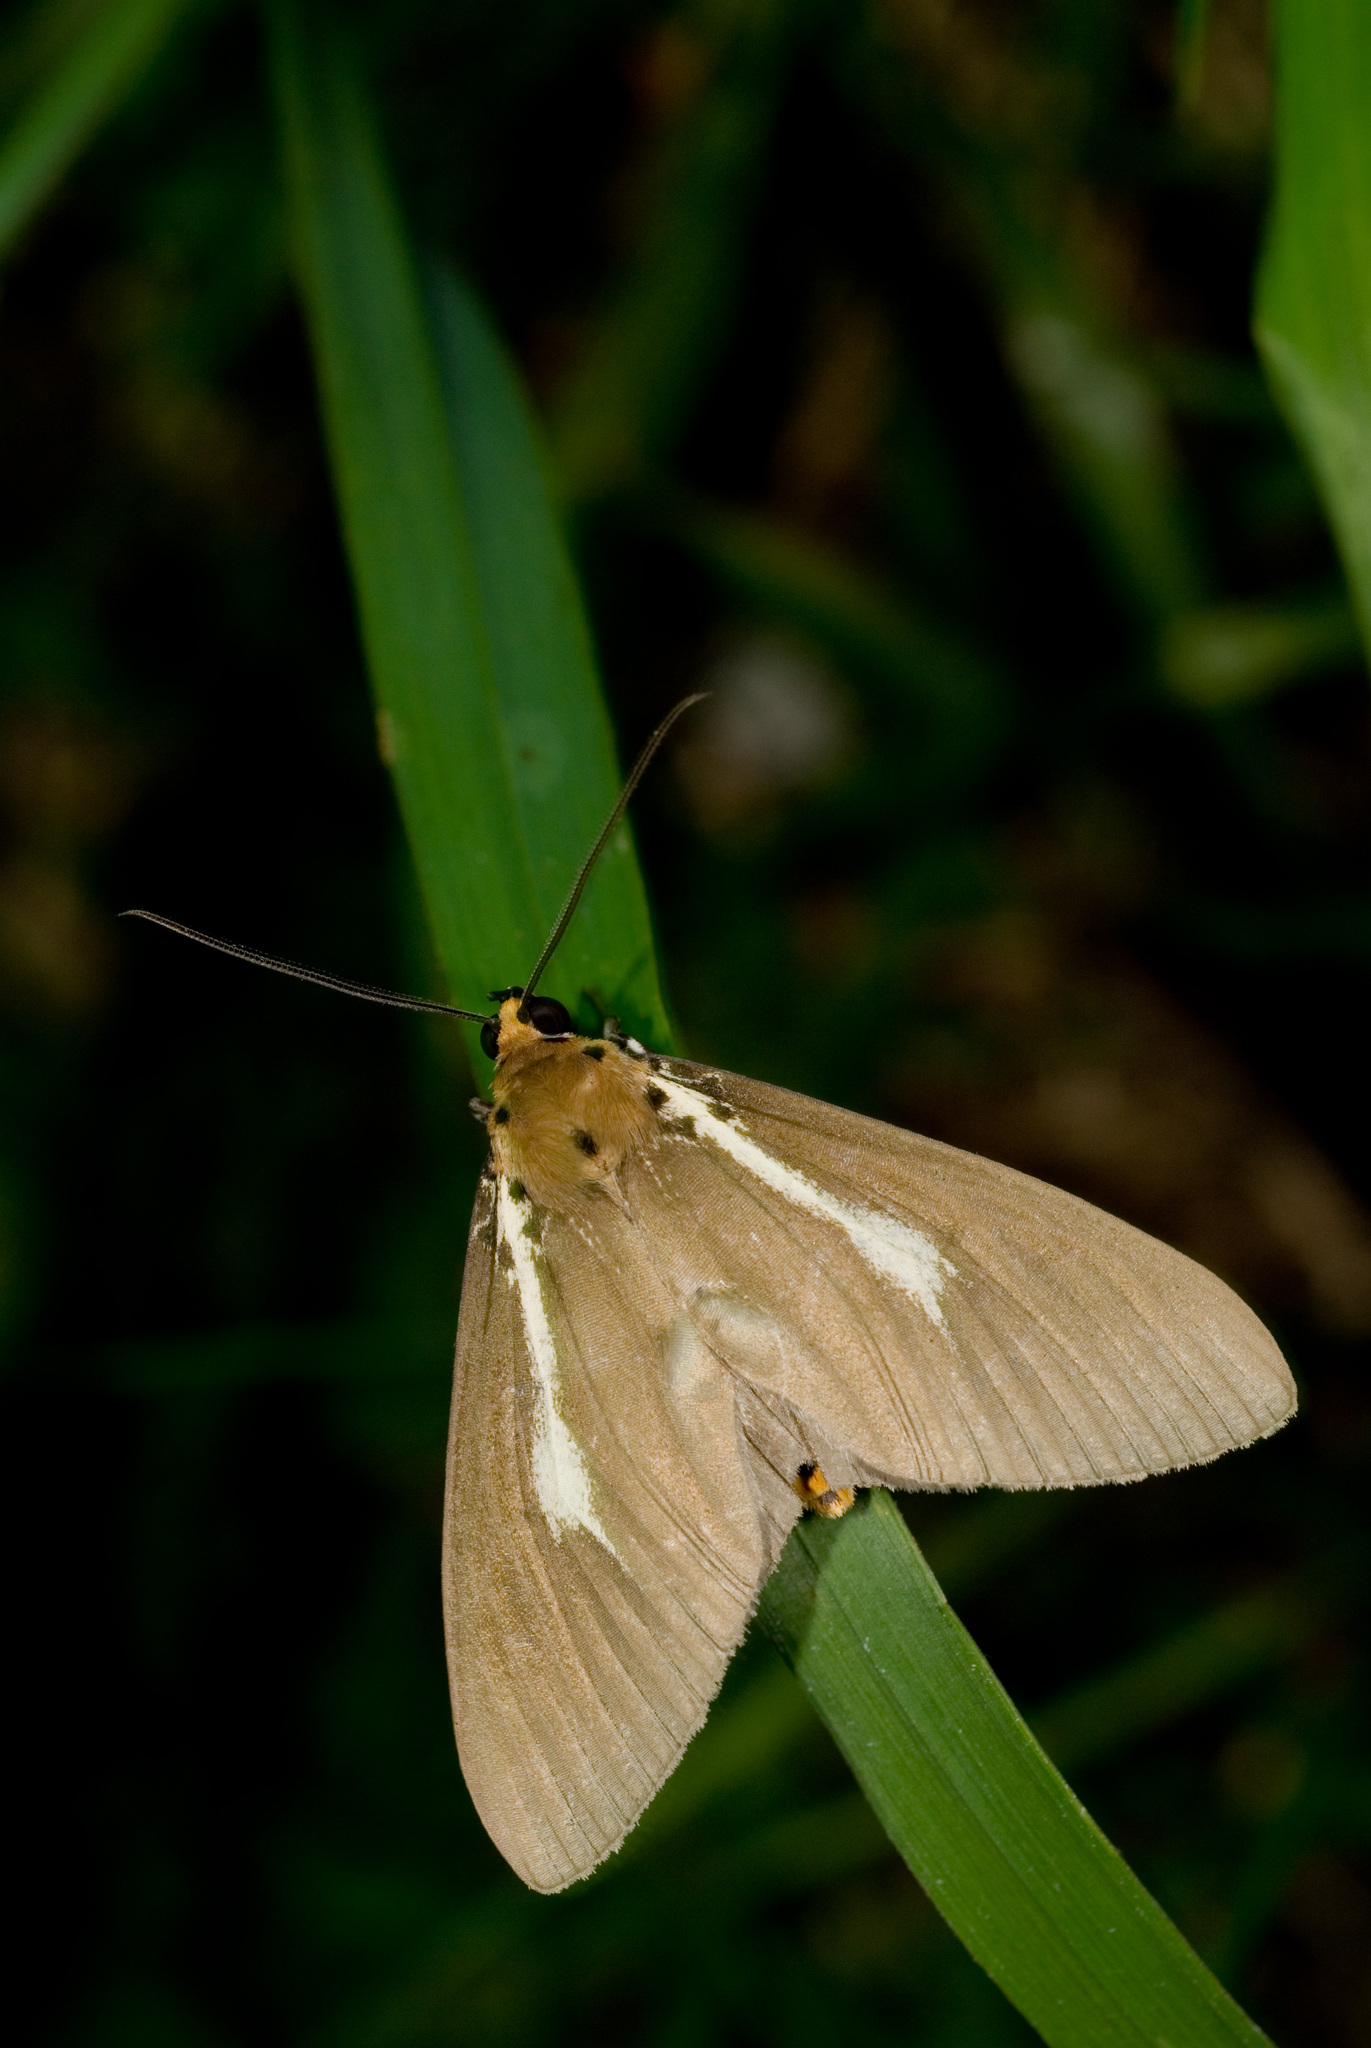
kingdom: Animalia
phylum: Arthropoda
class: Insecta
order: Lepidoptera
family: Erebidae
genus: Asota
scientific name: Asota heliconia
